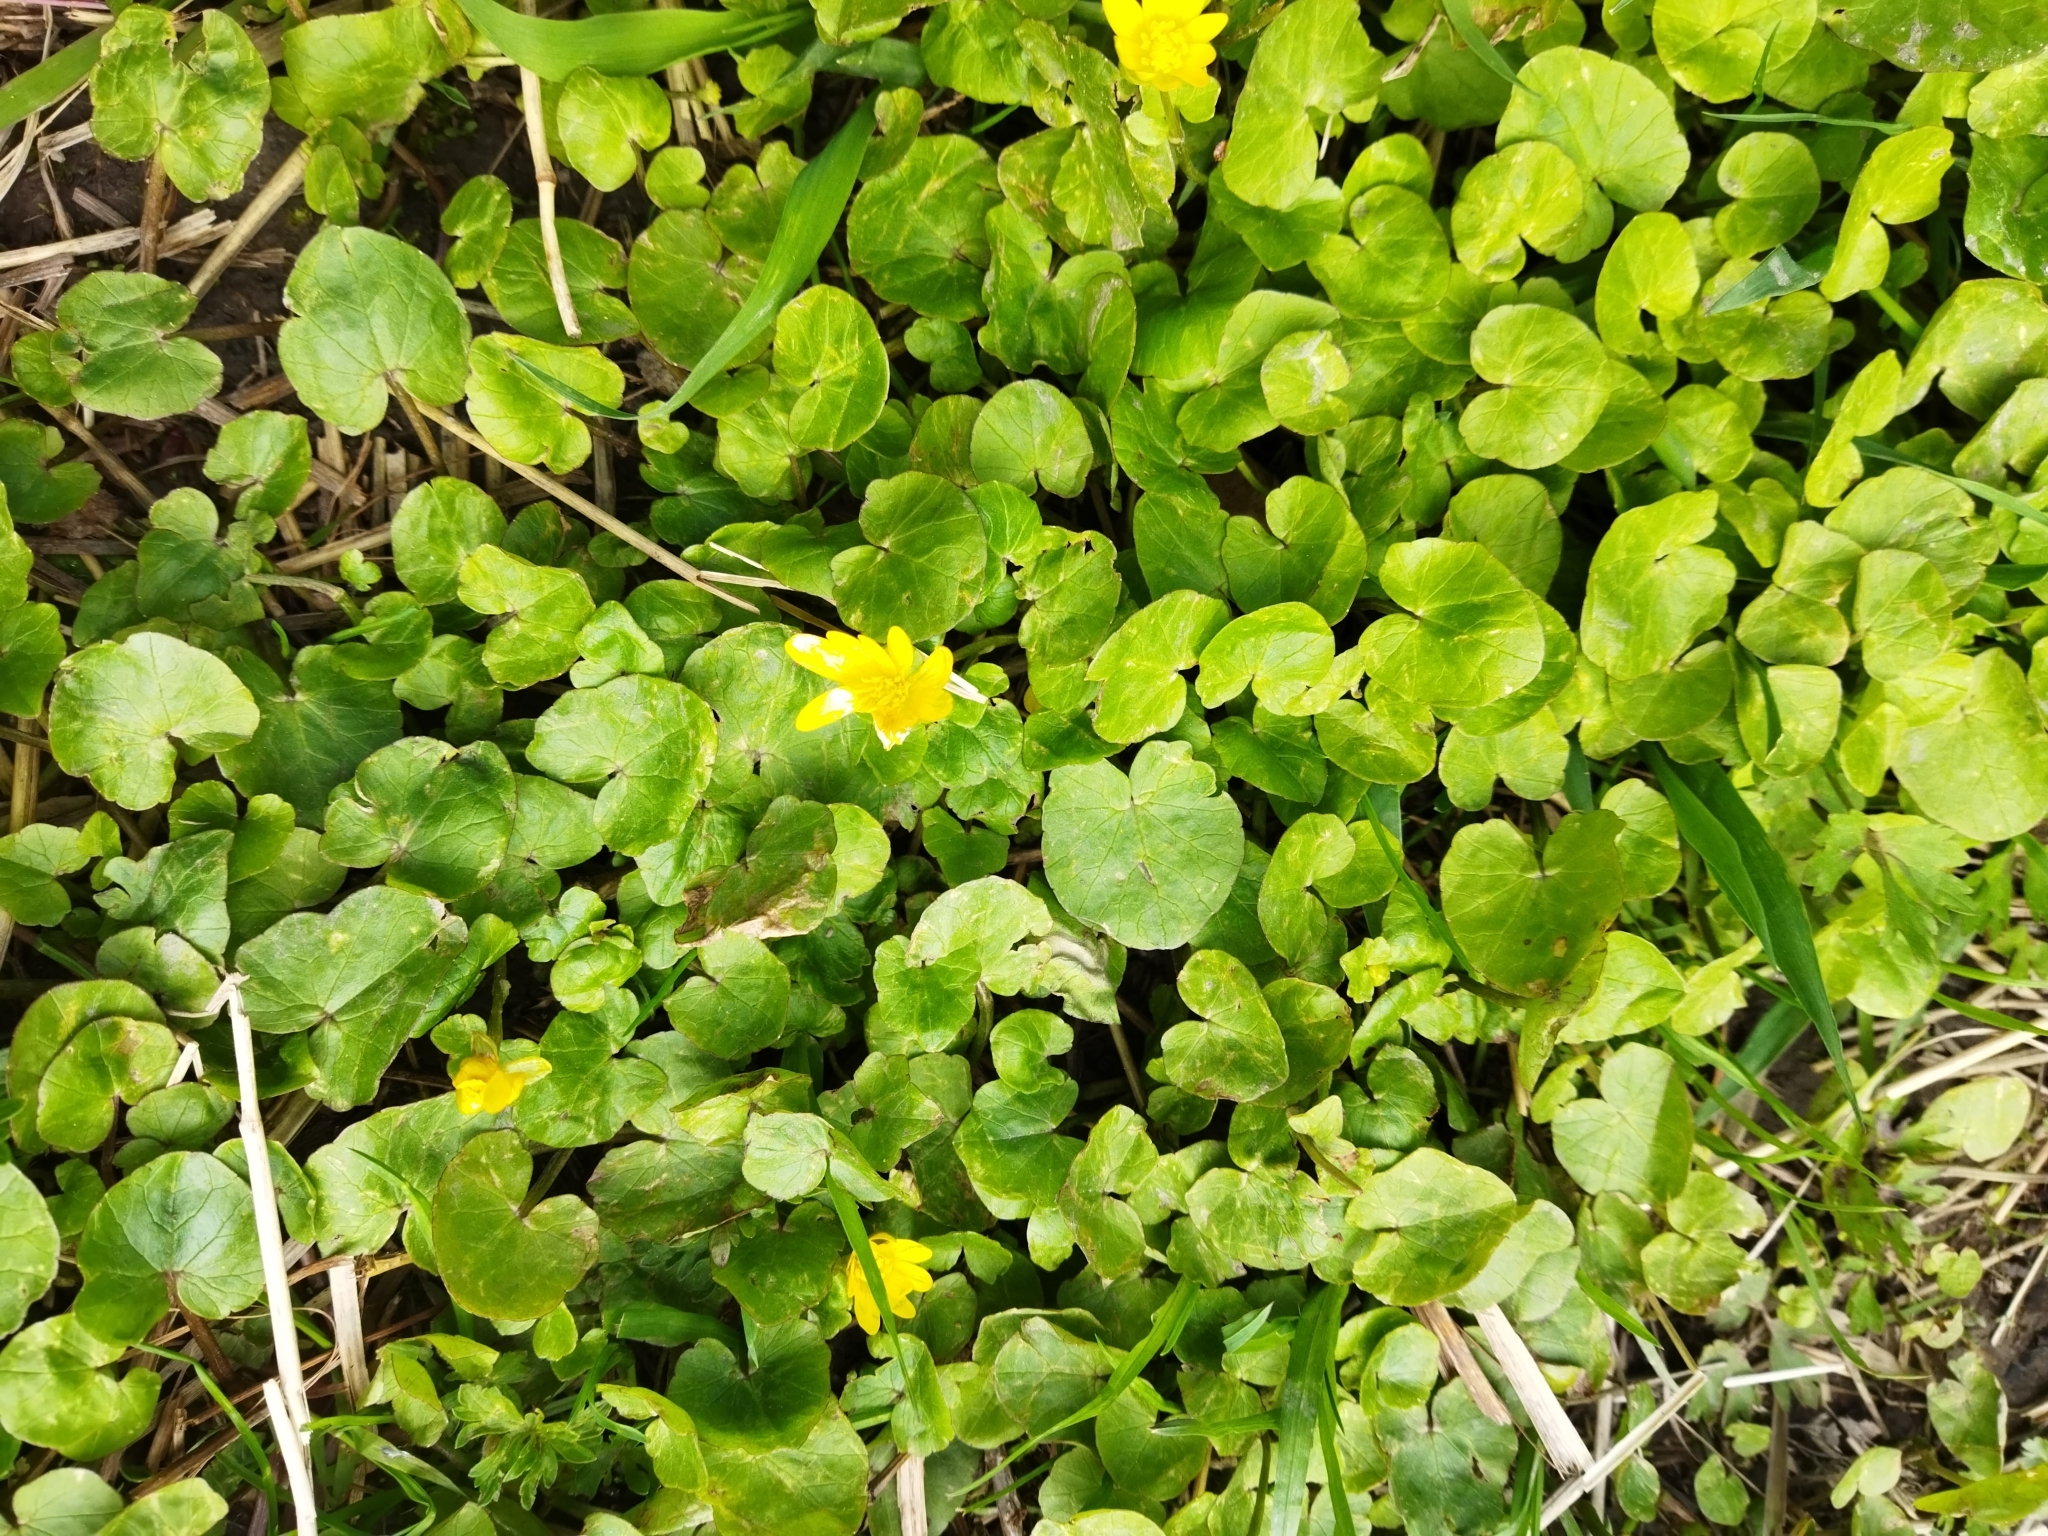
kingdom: Plantae
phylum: Tracheophyta
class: Magnoliopsida
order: Ranunculales
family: Ranunculaceae
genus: Ficaria
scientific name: Ficaria verna
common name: Lesser celandine
